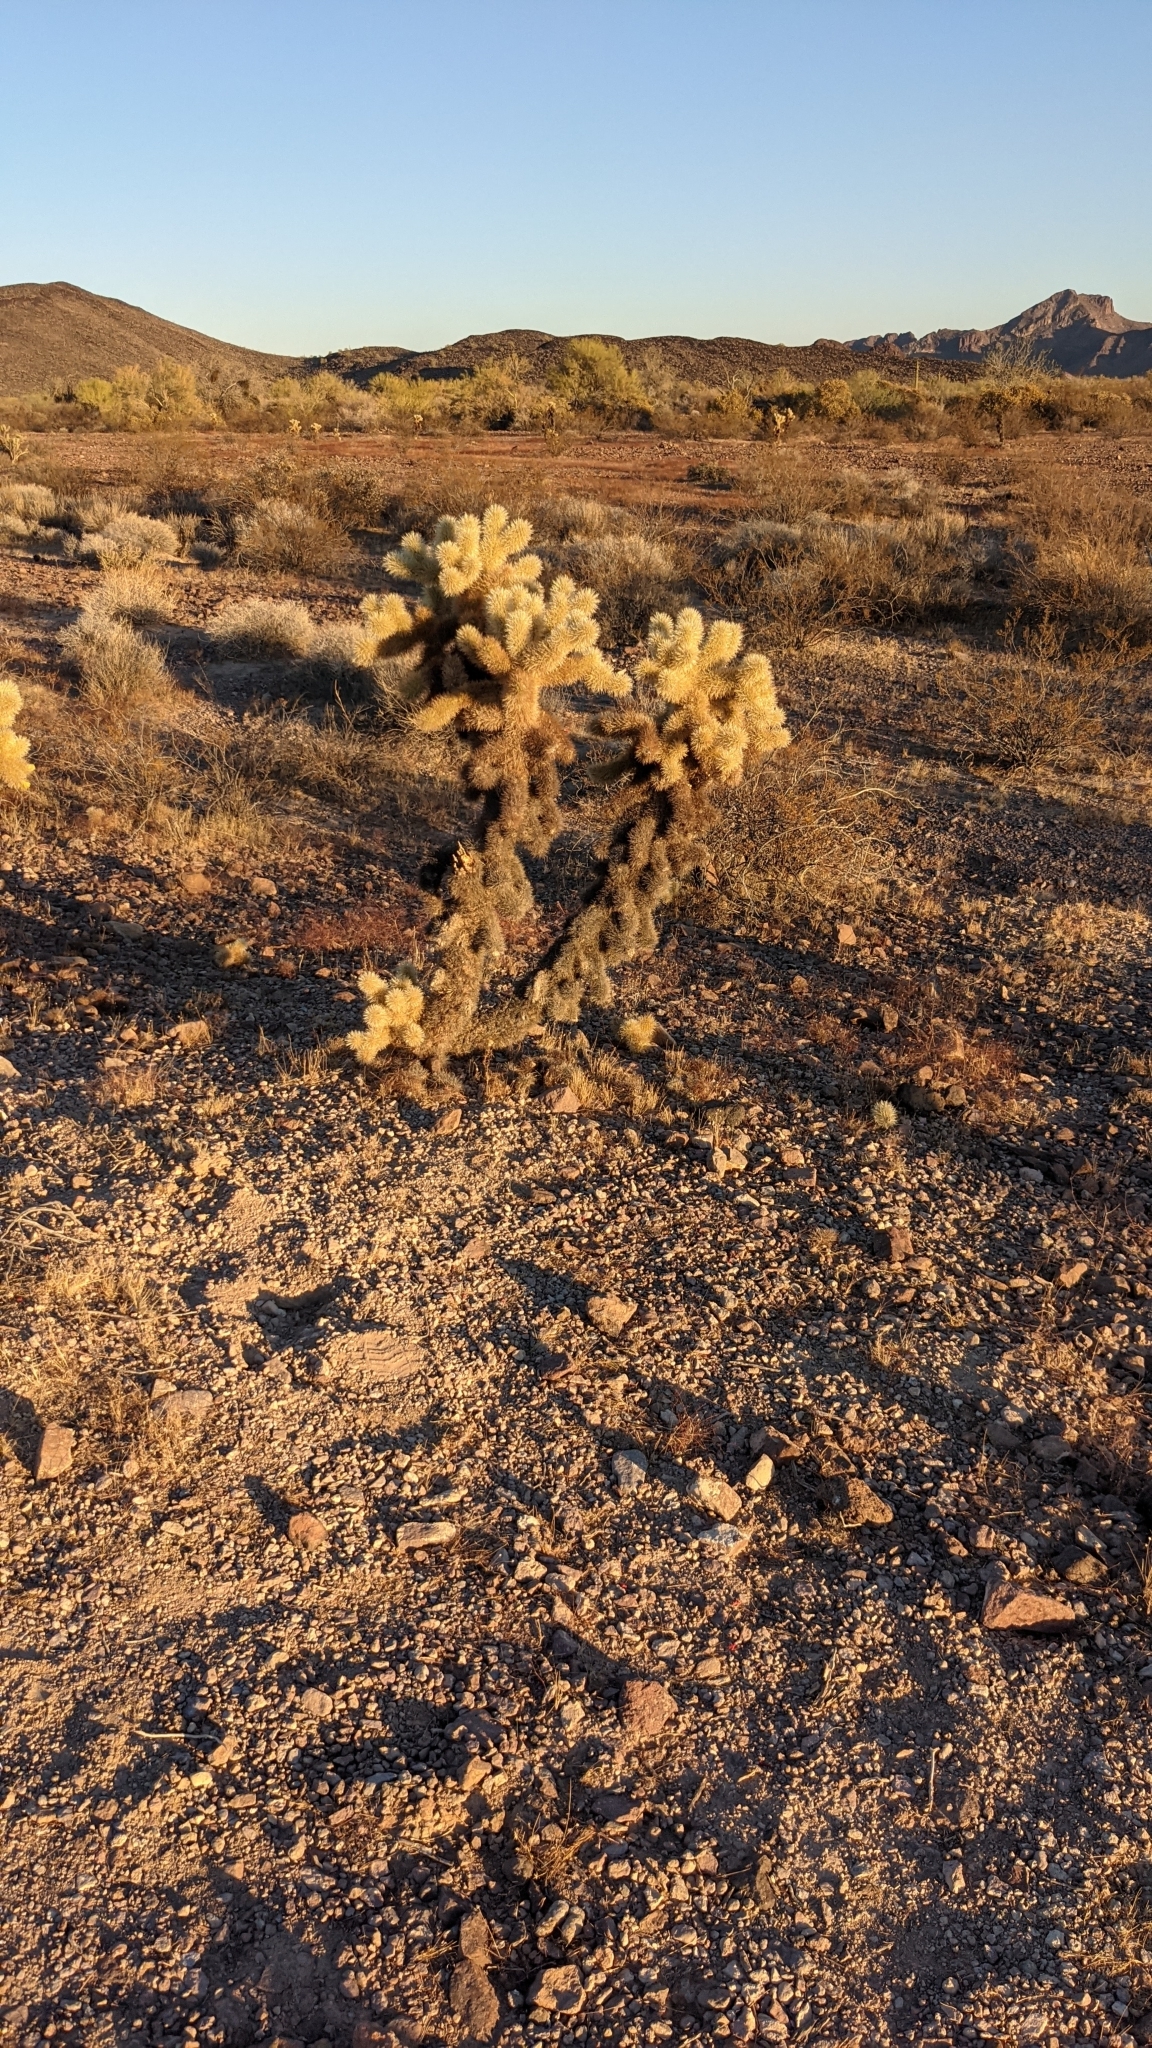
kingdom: Plantae
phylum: Tracheophyta
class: Magnoliopsida
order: Caryophyllales
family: Cactaceae
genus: Cylindropuntia
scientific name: Cylindropuntia fosbergii
